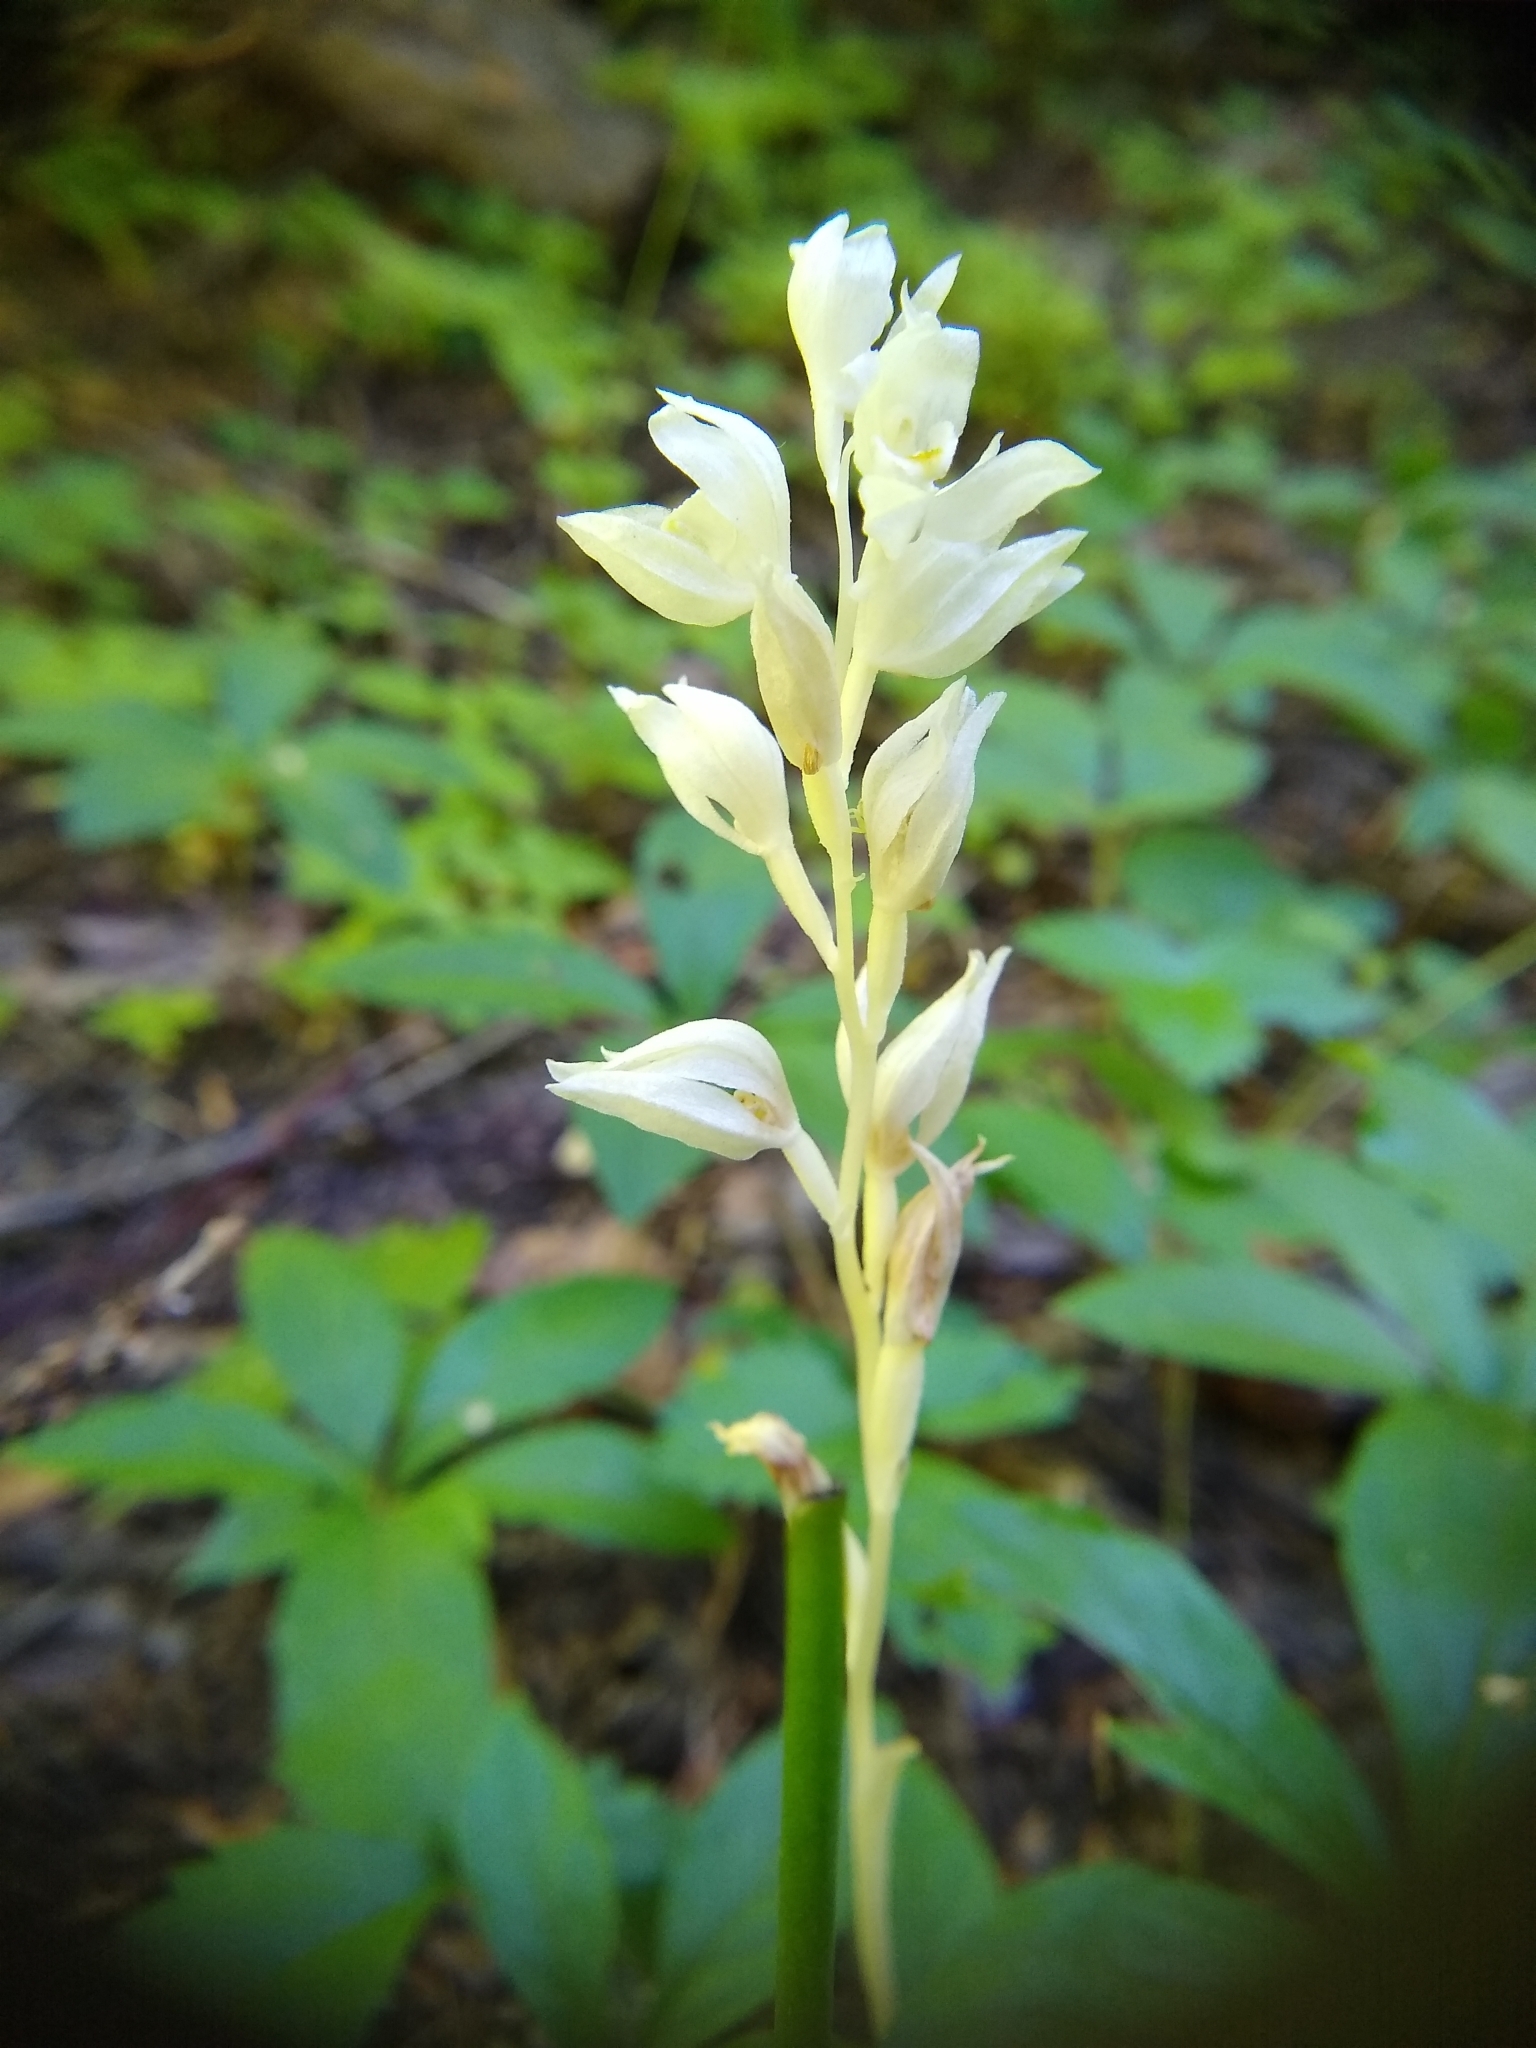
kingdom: Plantae
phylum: Tracheophyta
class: Liliopsida
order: Asparagales
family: Orchidaceae
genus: Cephalanthera
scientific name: Cephalanthera austiniae
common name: Phantom orchid
